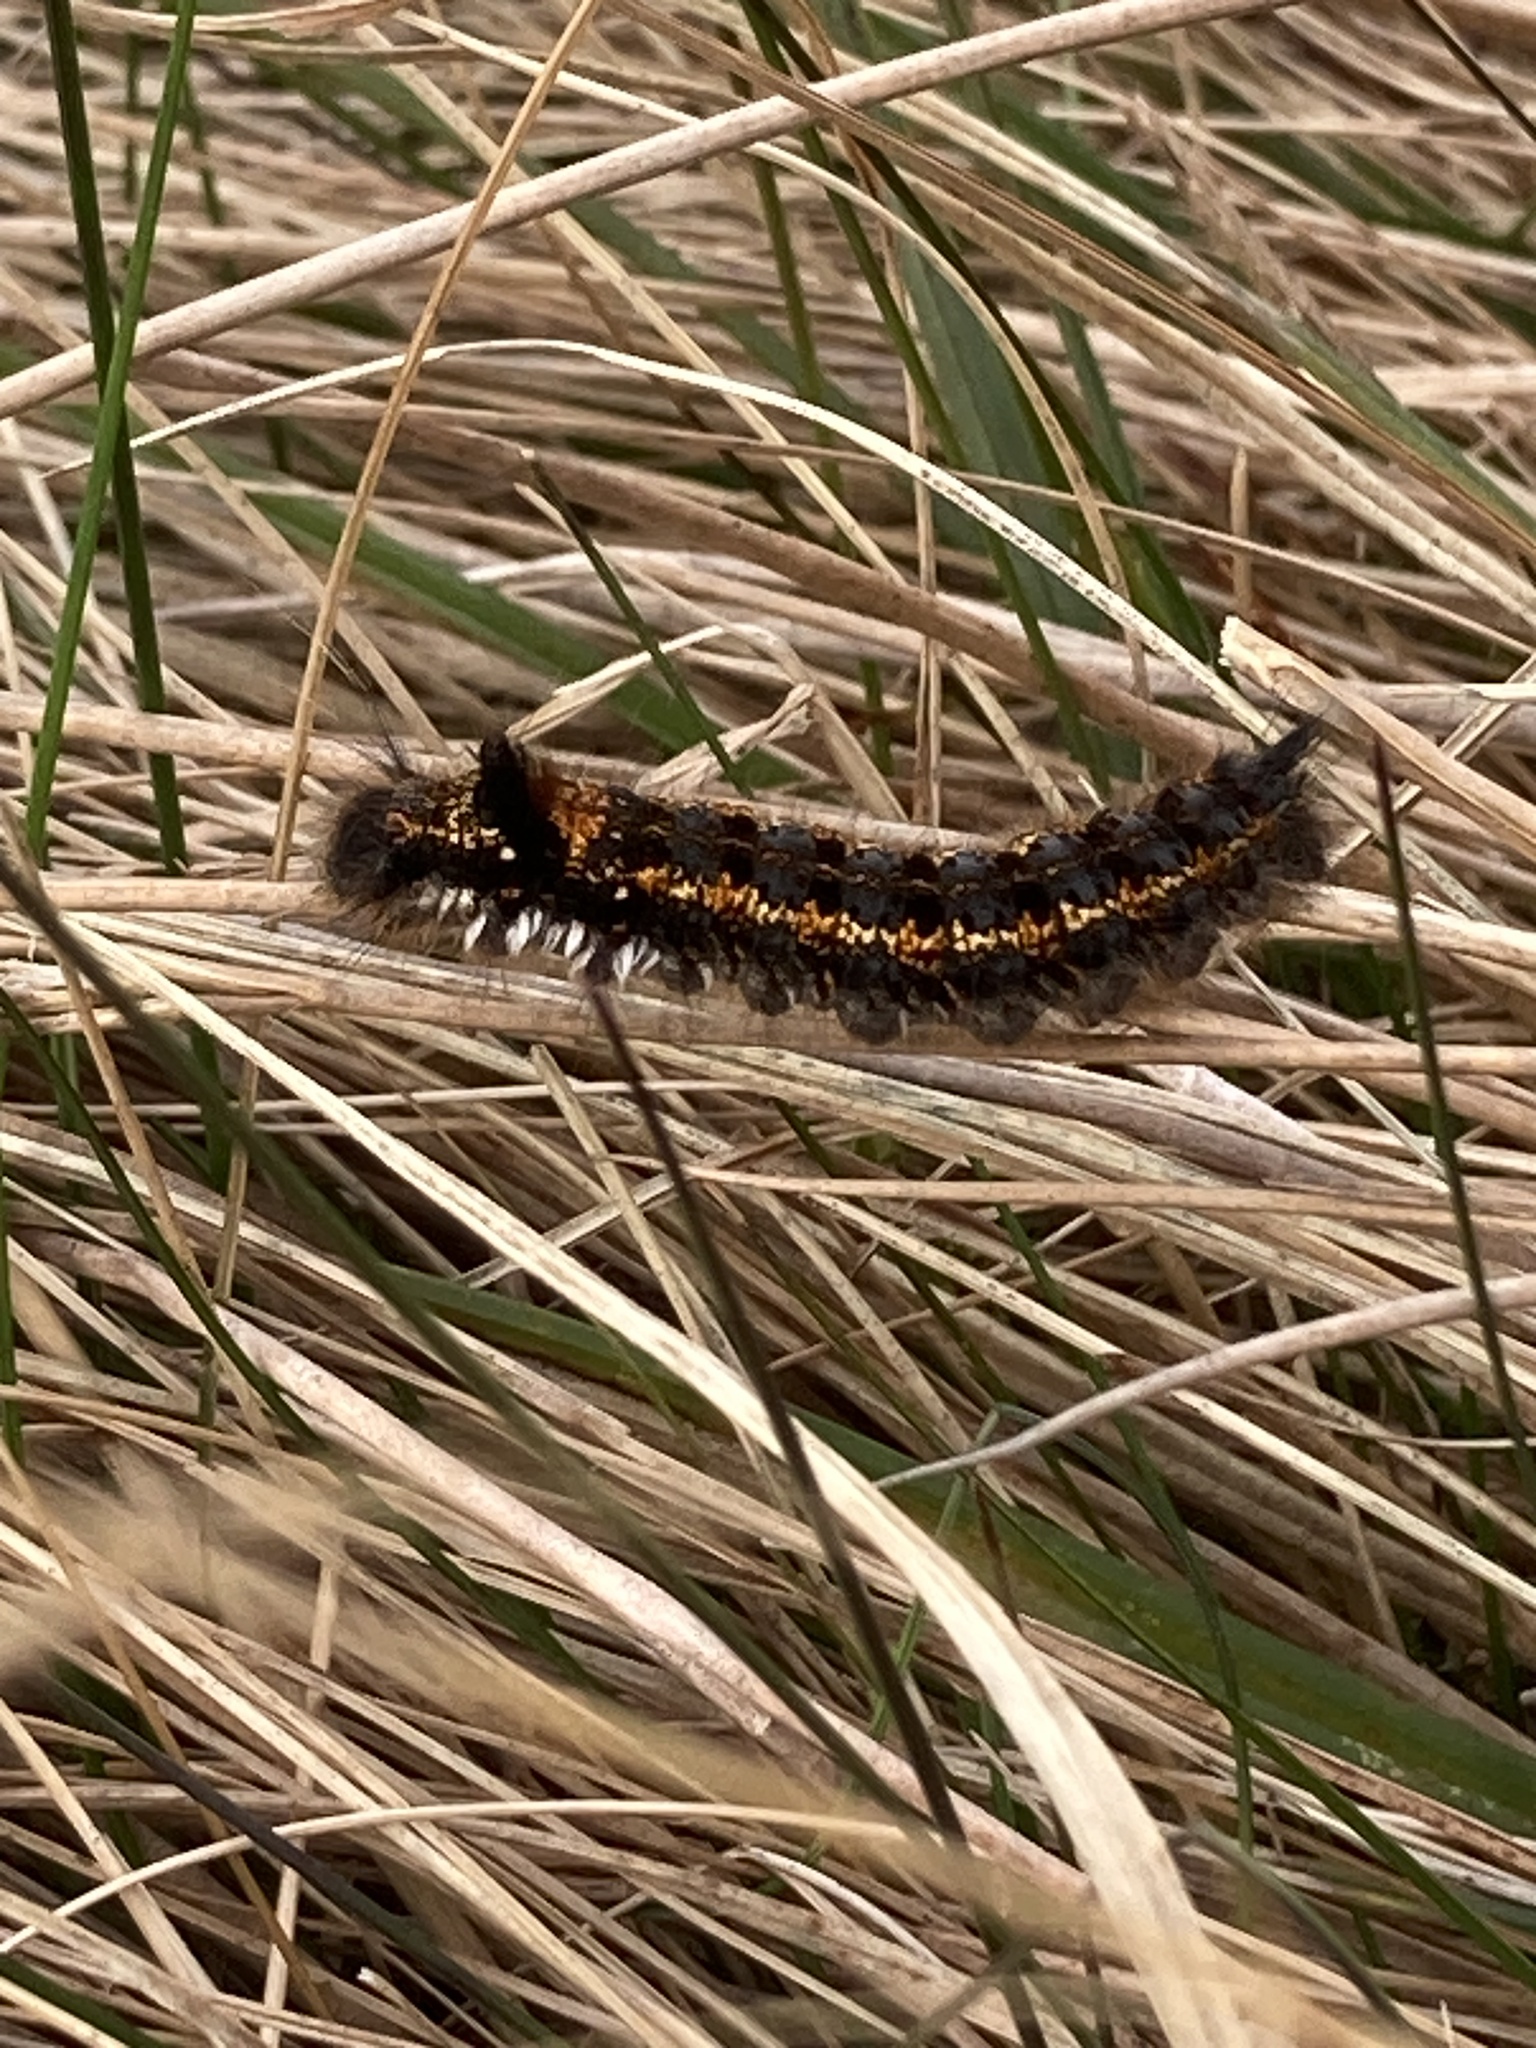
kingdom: Animalia
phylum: Arthropoda
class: Insecta
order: Lepidoptera
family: Lasiocampidae
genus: Euthrix
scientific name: Euthrix potatoria
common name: Drinker
